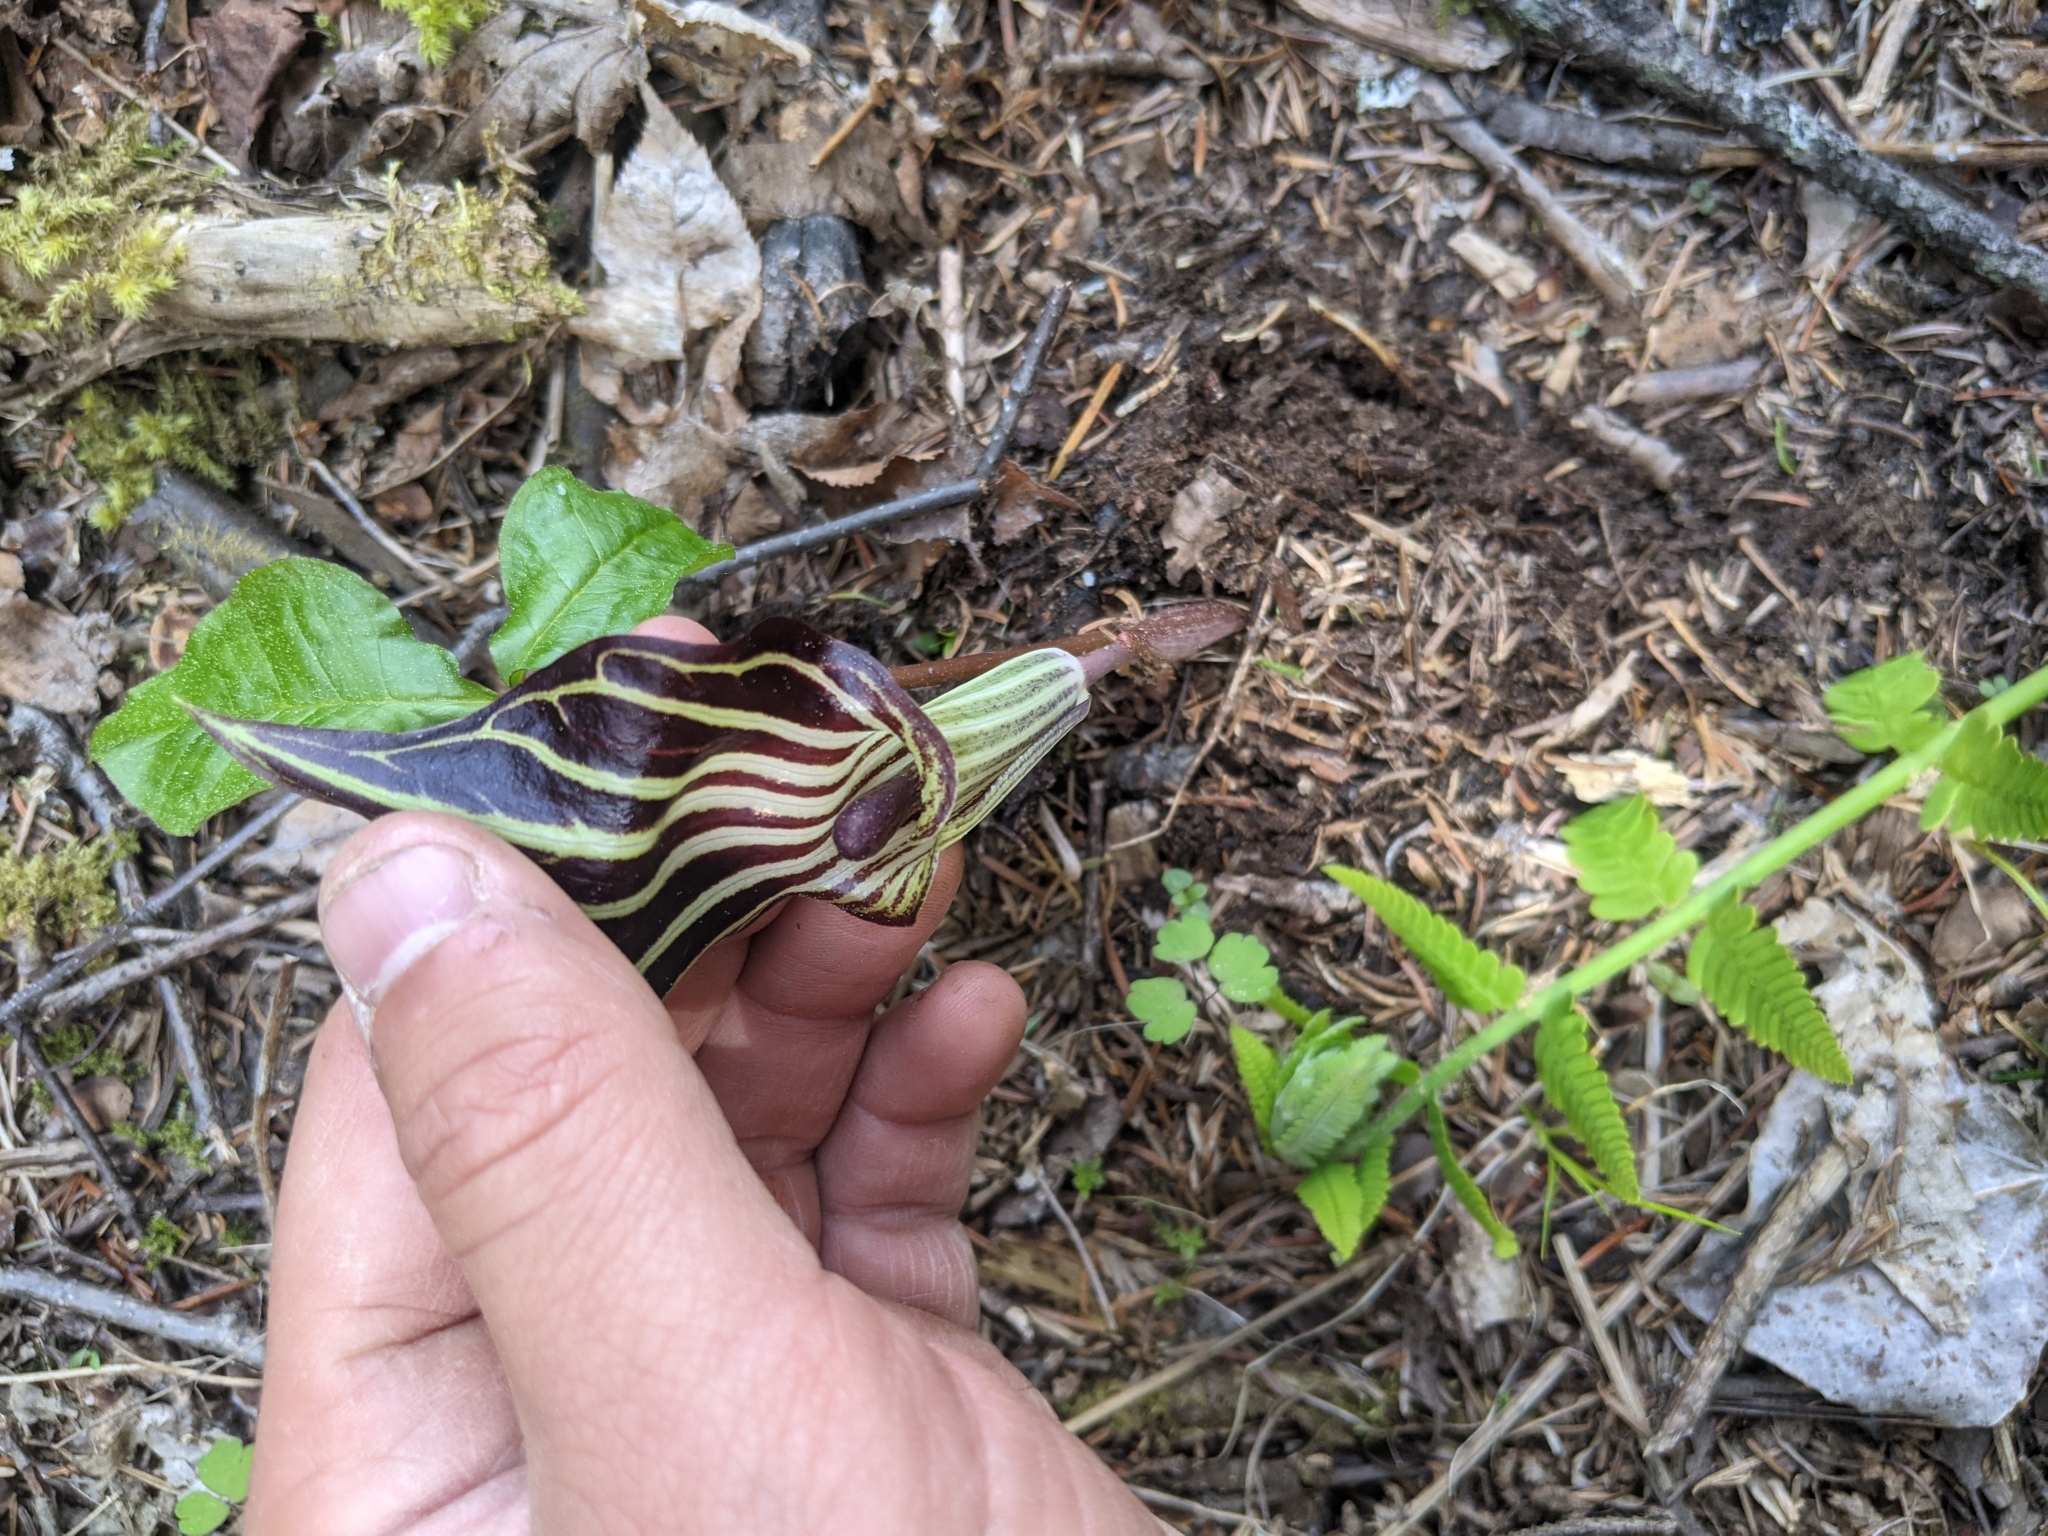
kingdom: Plantae
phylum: Tracheophyta
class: Liliopsida
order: Alismatales
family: Araceae
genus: Arisaema
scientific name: Arisaema triphyllum
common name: Jack-in-the-pulpit
